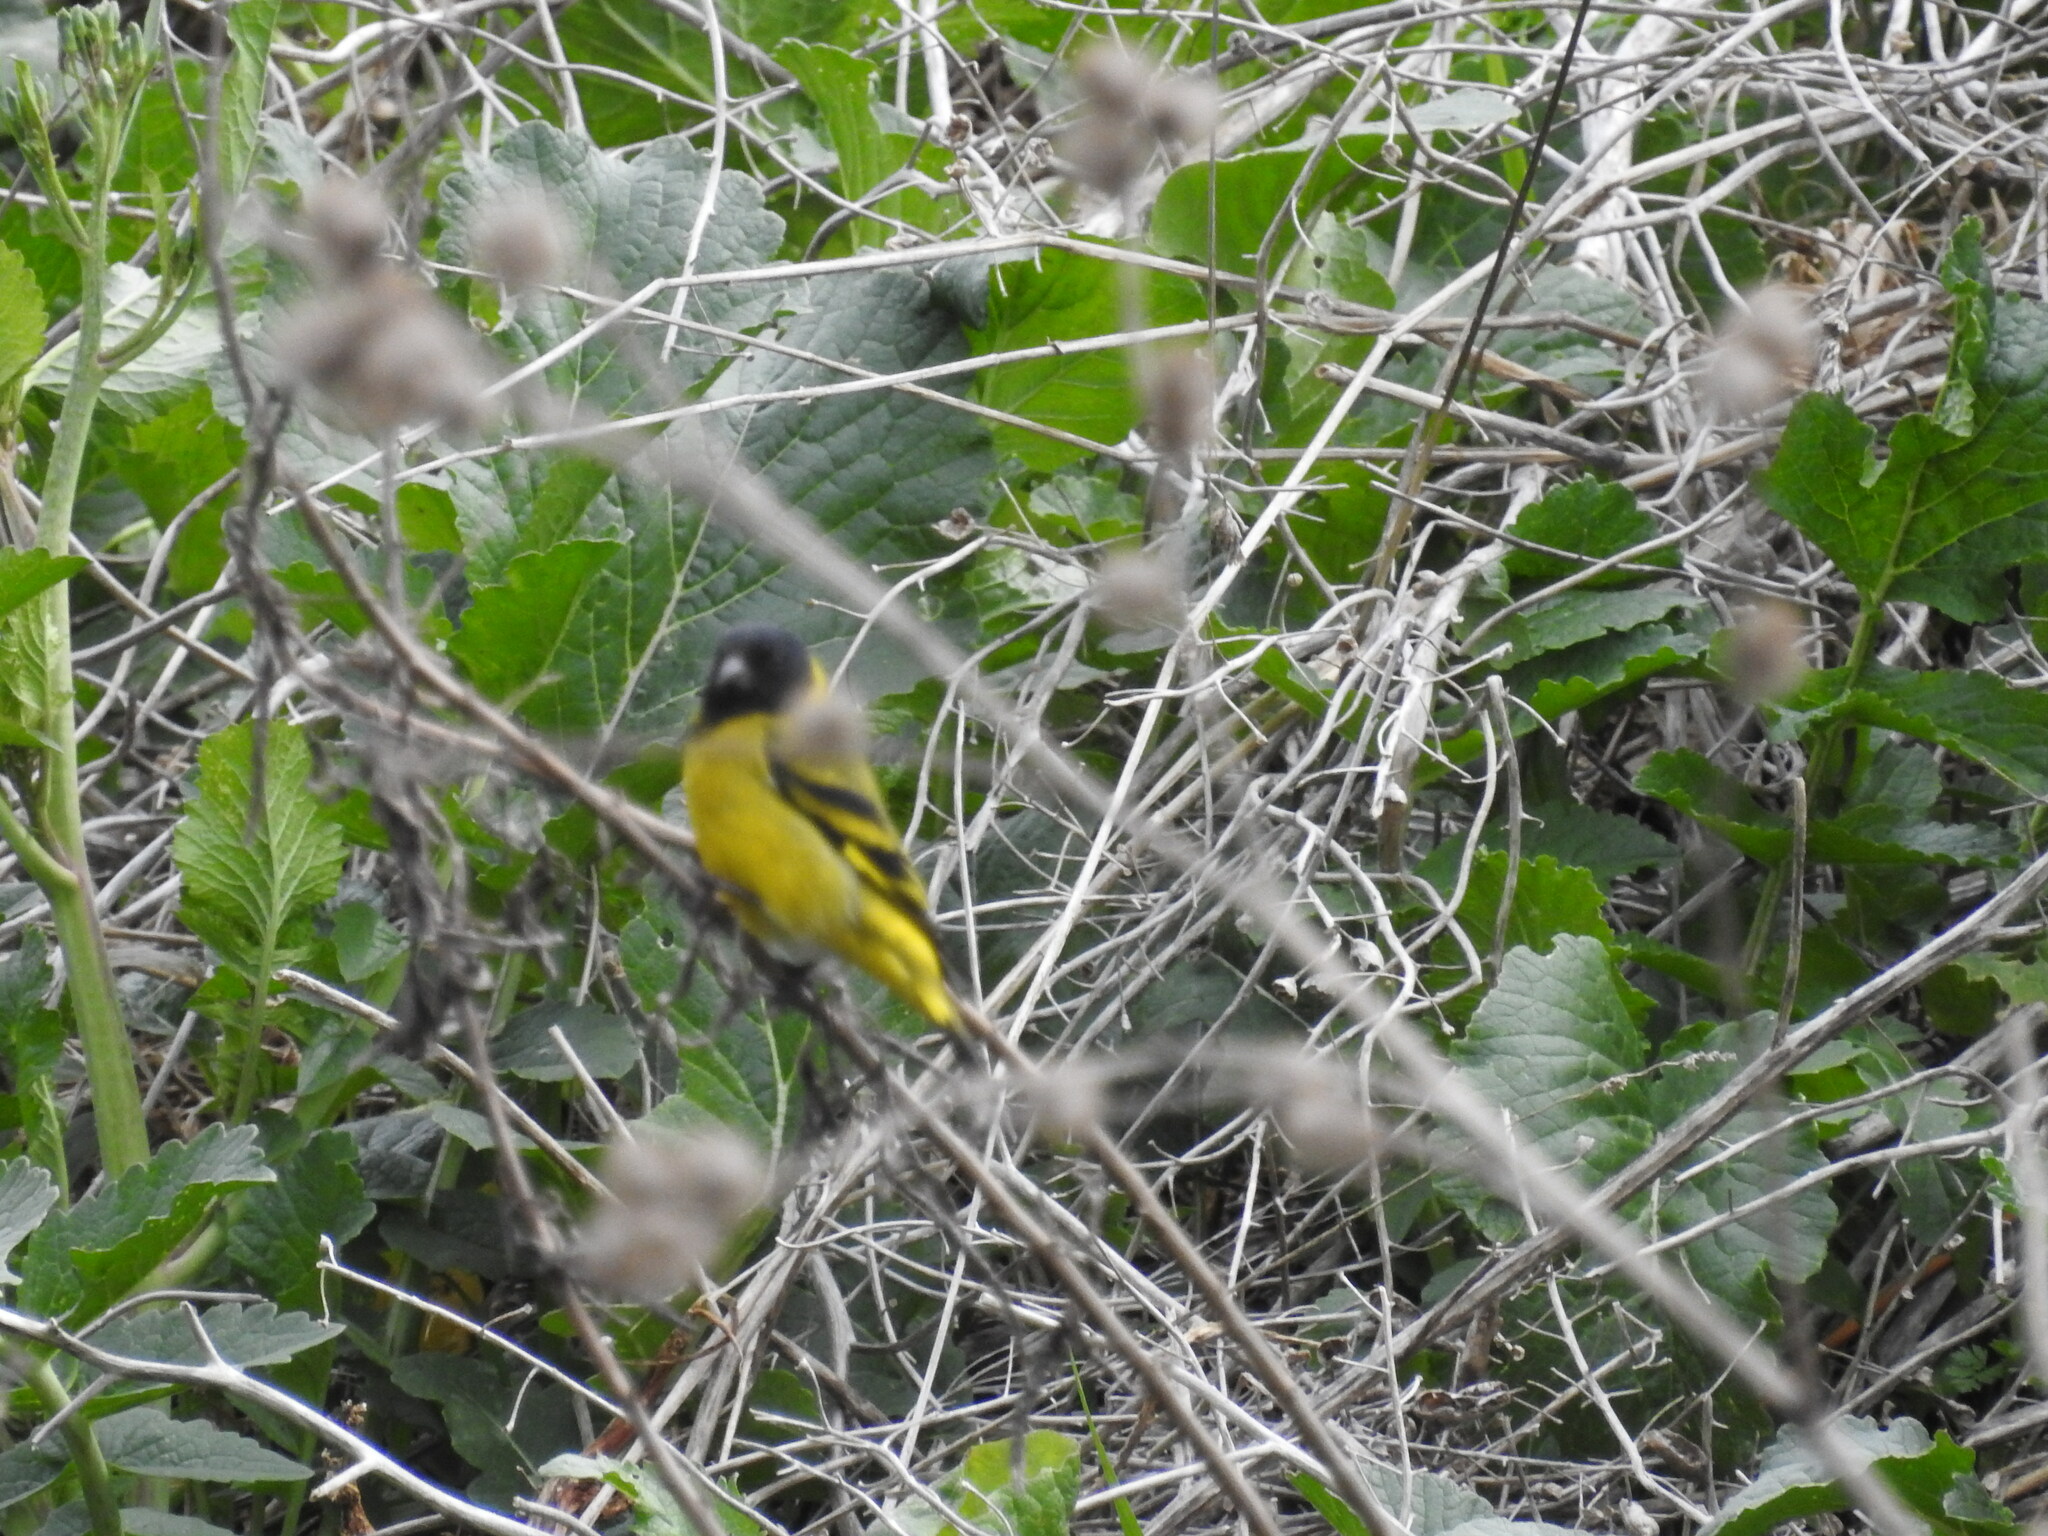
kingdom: Animalia
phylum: Chordata
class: Aves
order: Passeriformes
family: Fringillidae
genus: Spinus
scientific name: Spinus magellanicus
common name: Hooded siskin
